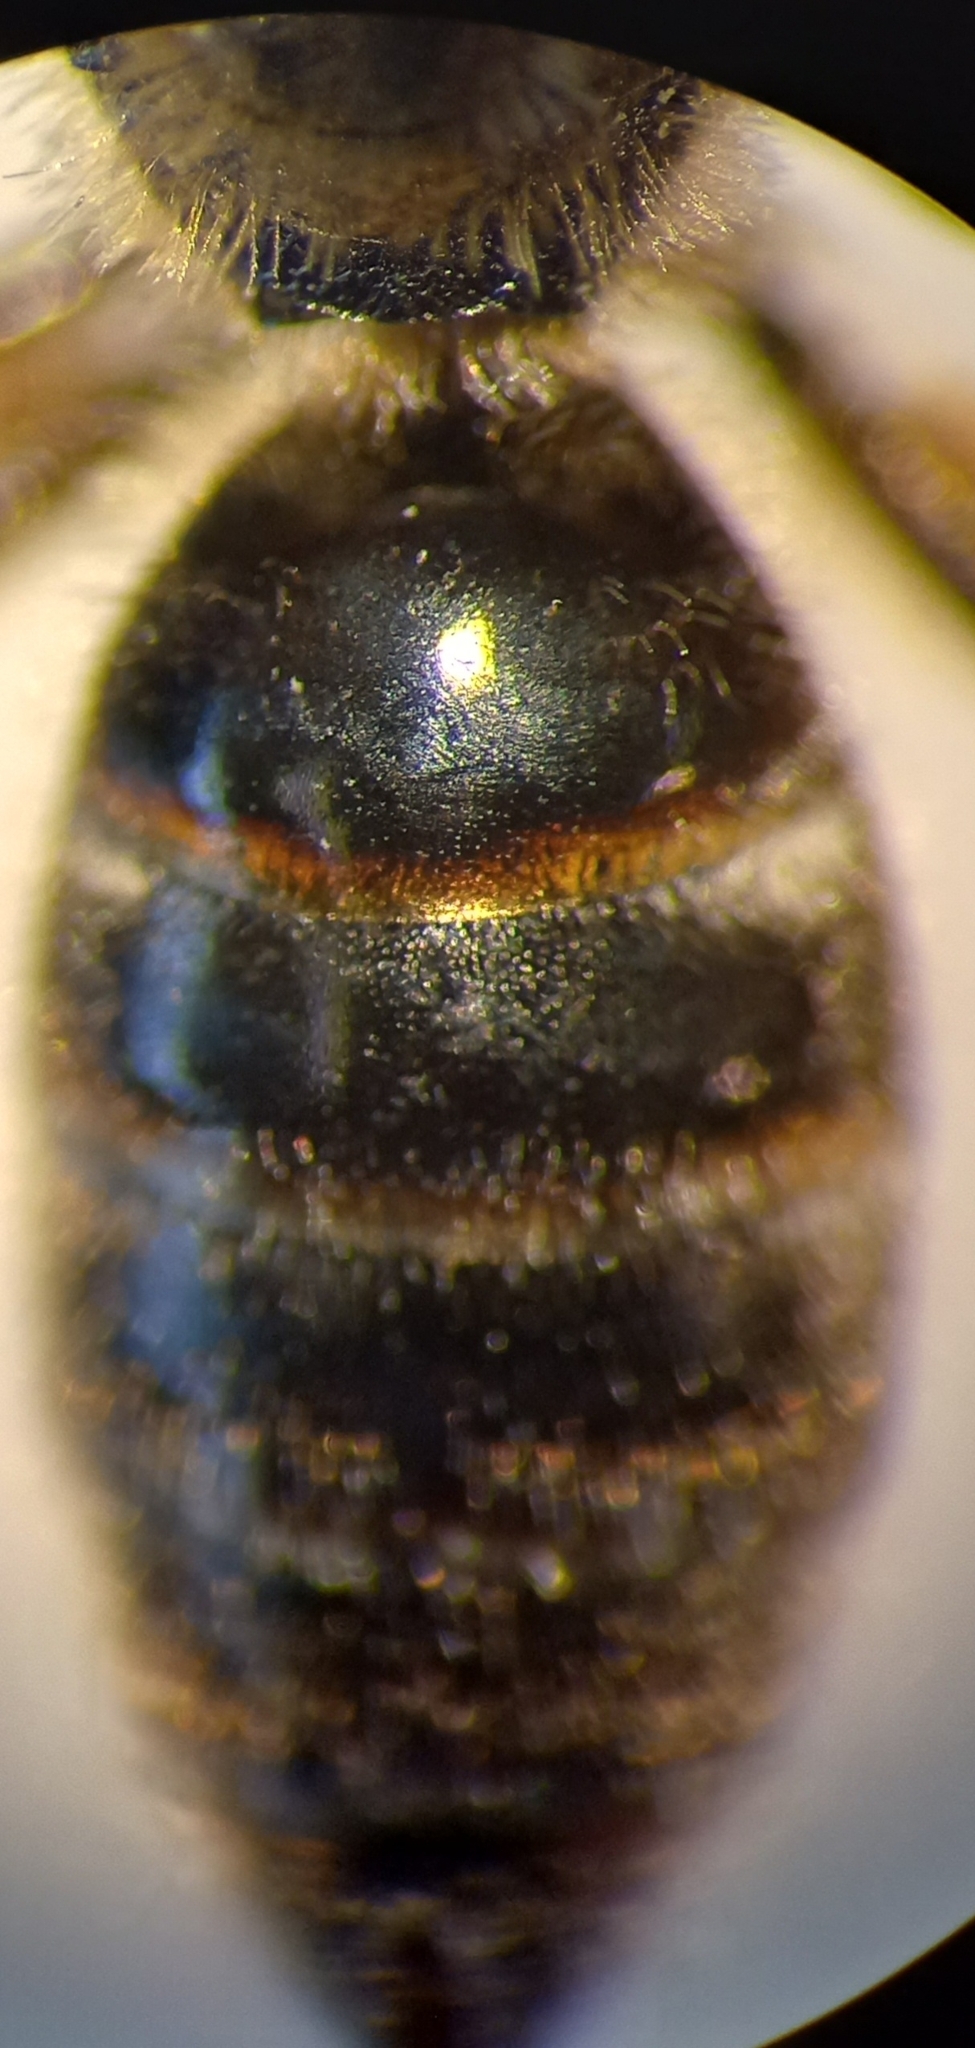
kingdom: Animalia
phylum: Arthropoda
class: Insecta
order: Hymenoptera
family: Halictidae
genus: Lasioglossum
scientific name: Lasioglossum calceatum
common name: Common furrow bee
